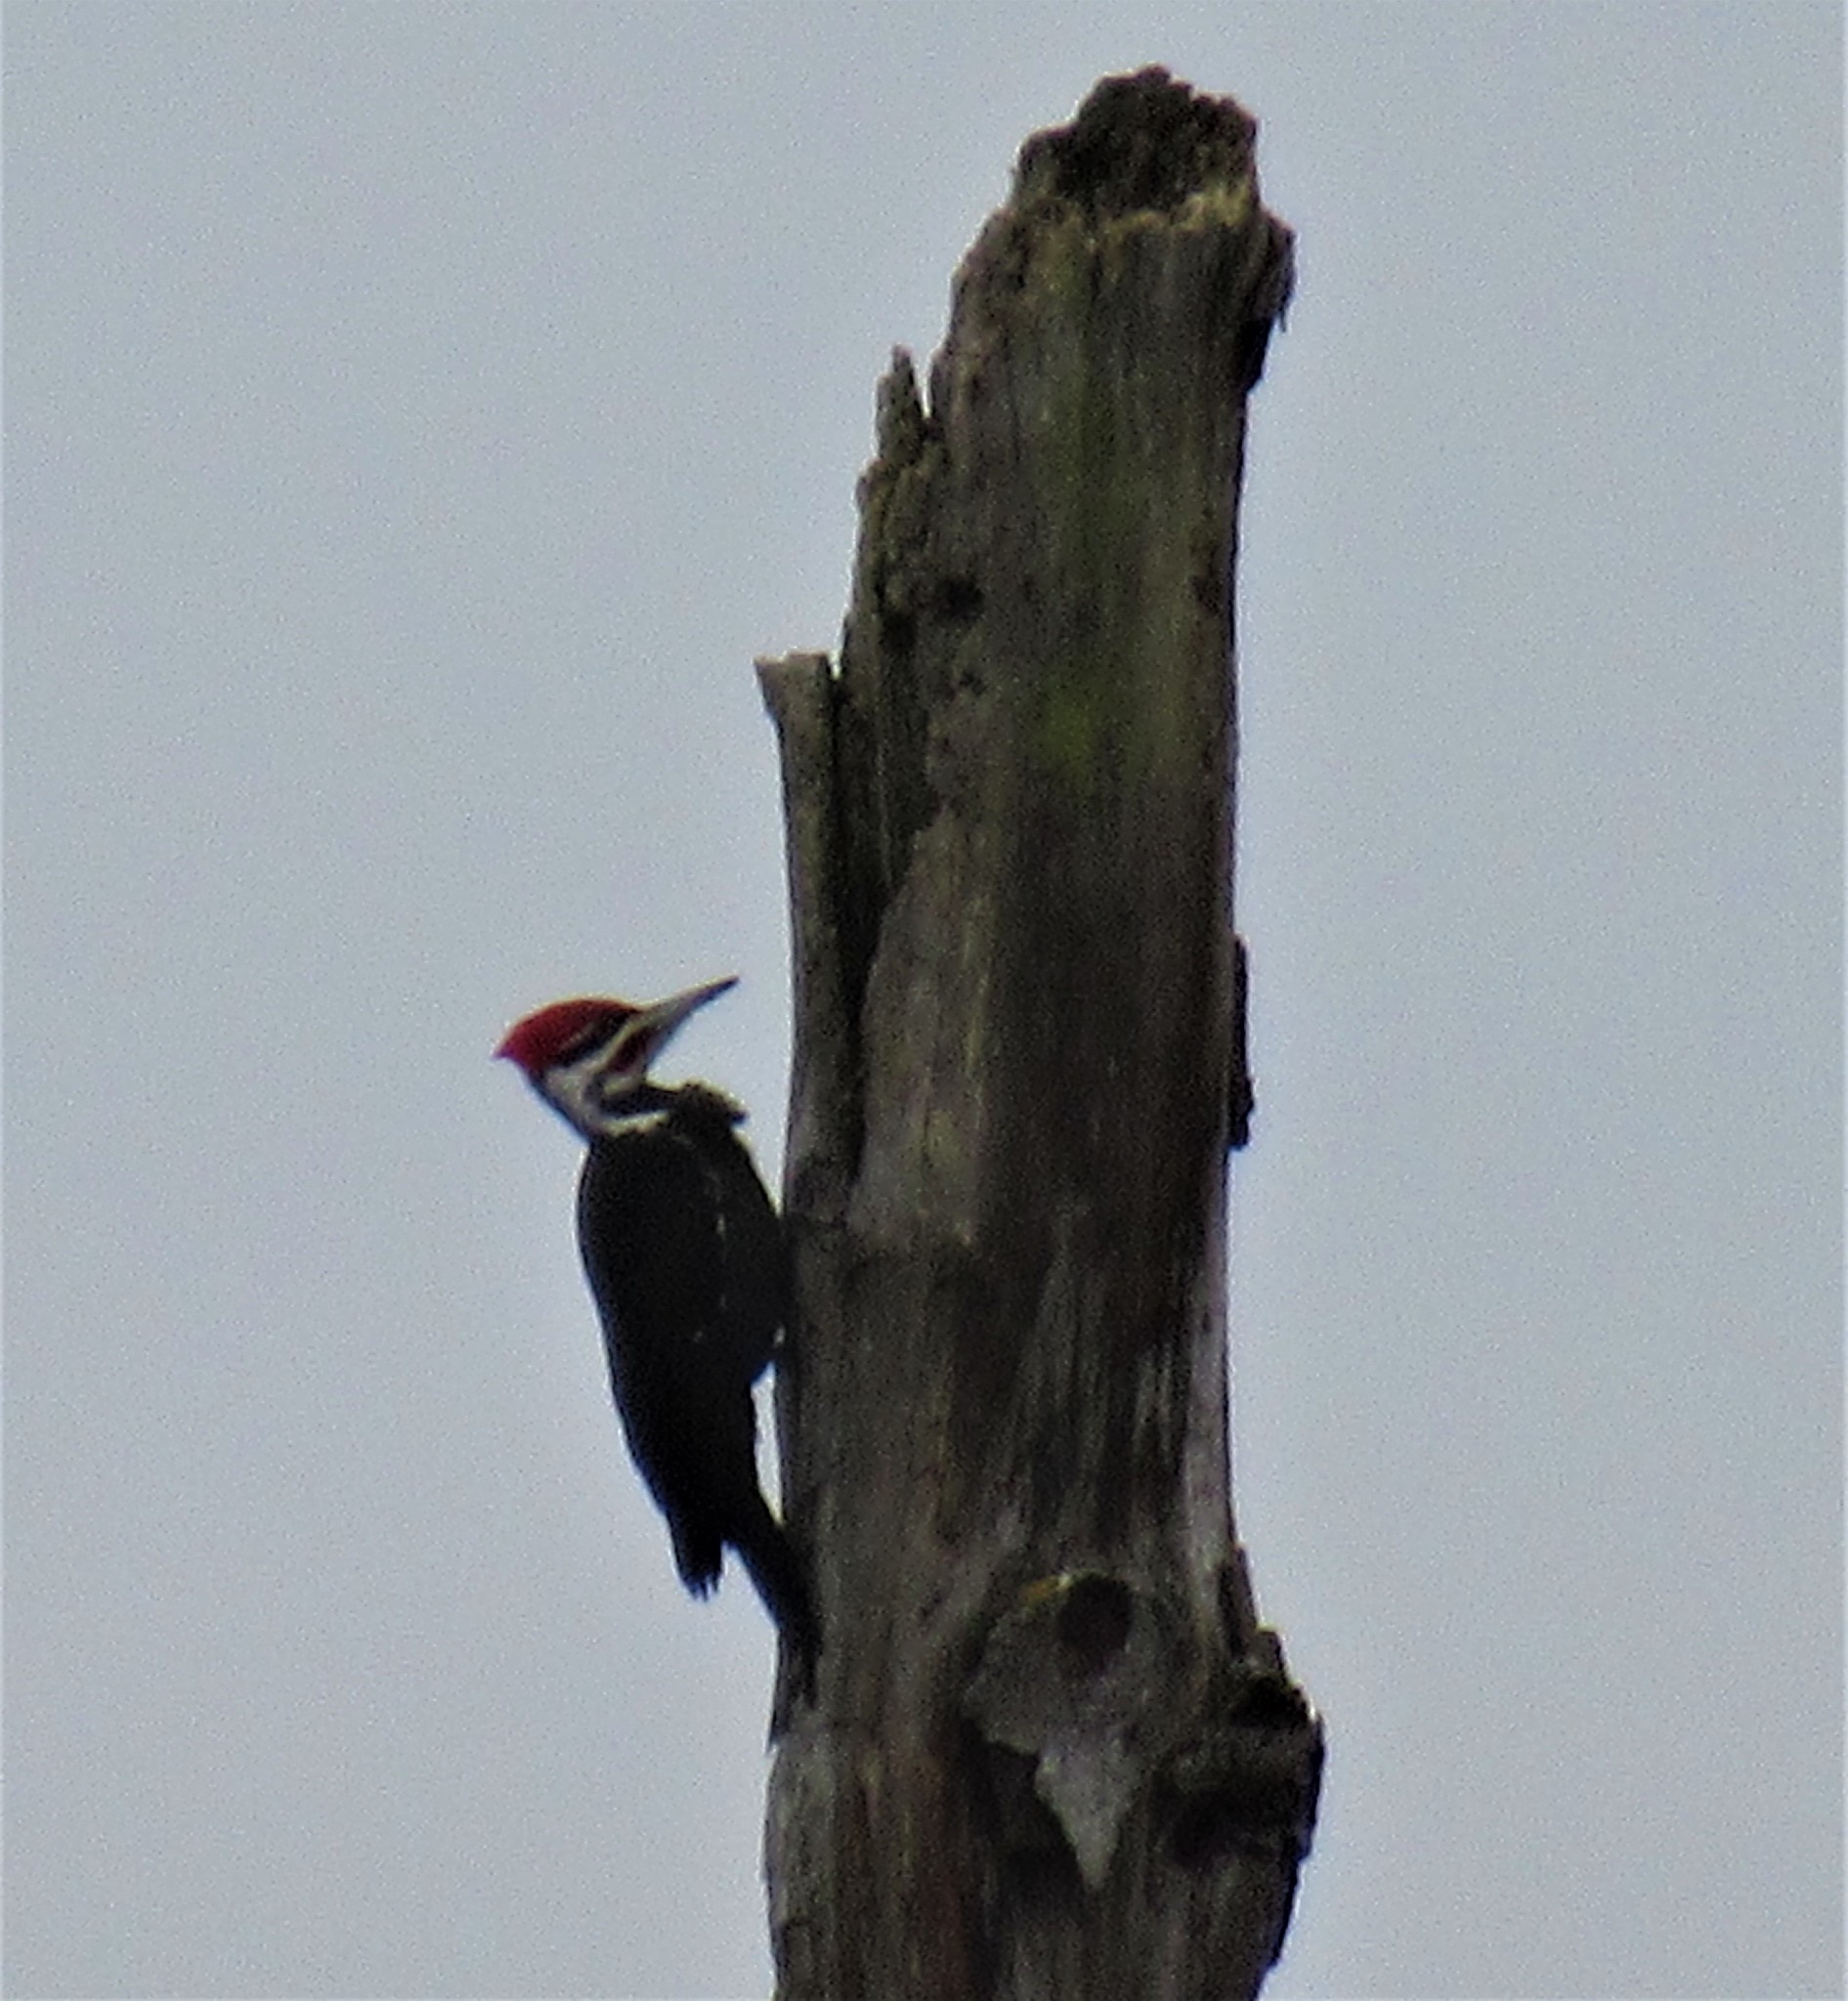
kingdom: Animalia
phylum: Chordata
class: Aves
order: Piciformes
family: Picidae
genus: Dryocopus
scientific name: Dryocopus pileatus
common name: Pileated woodpecker
